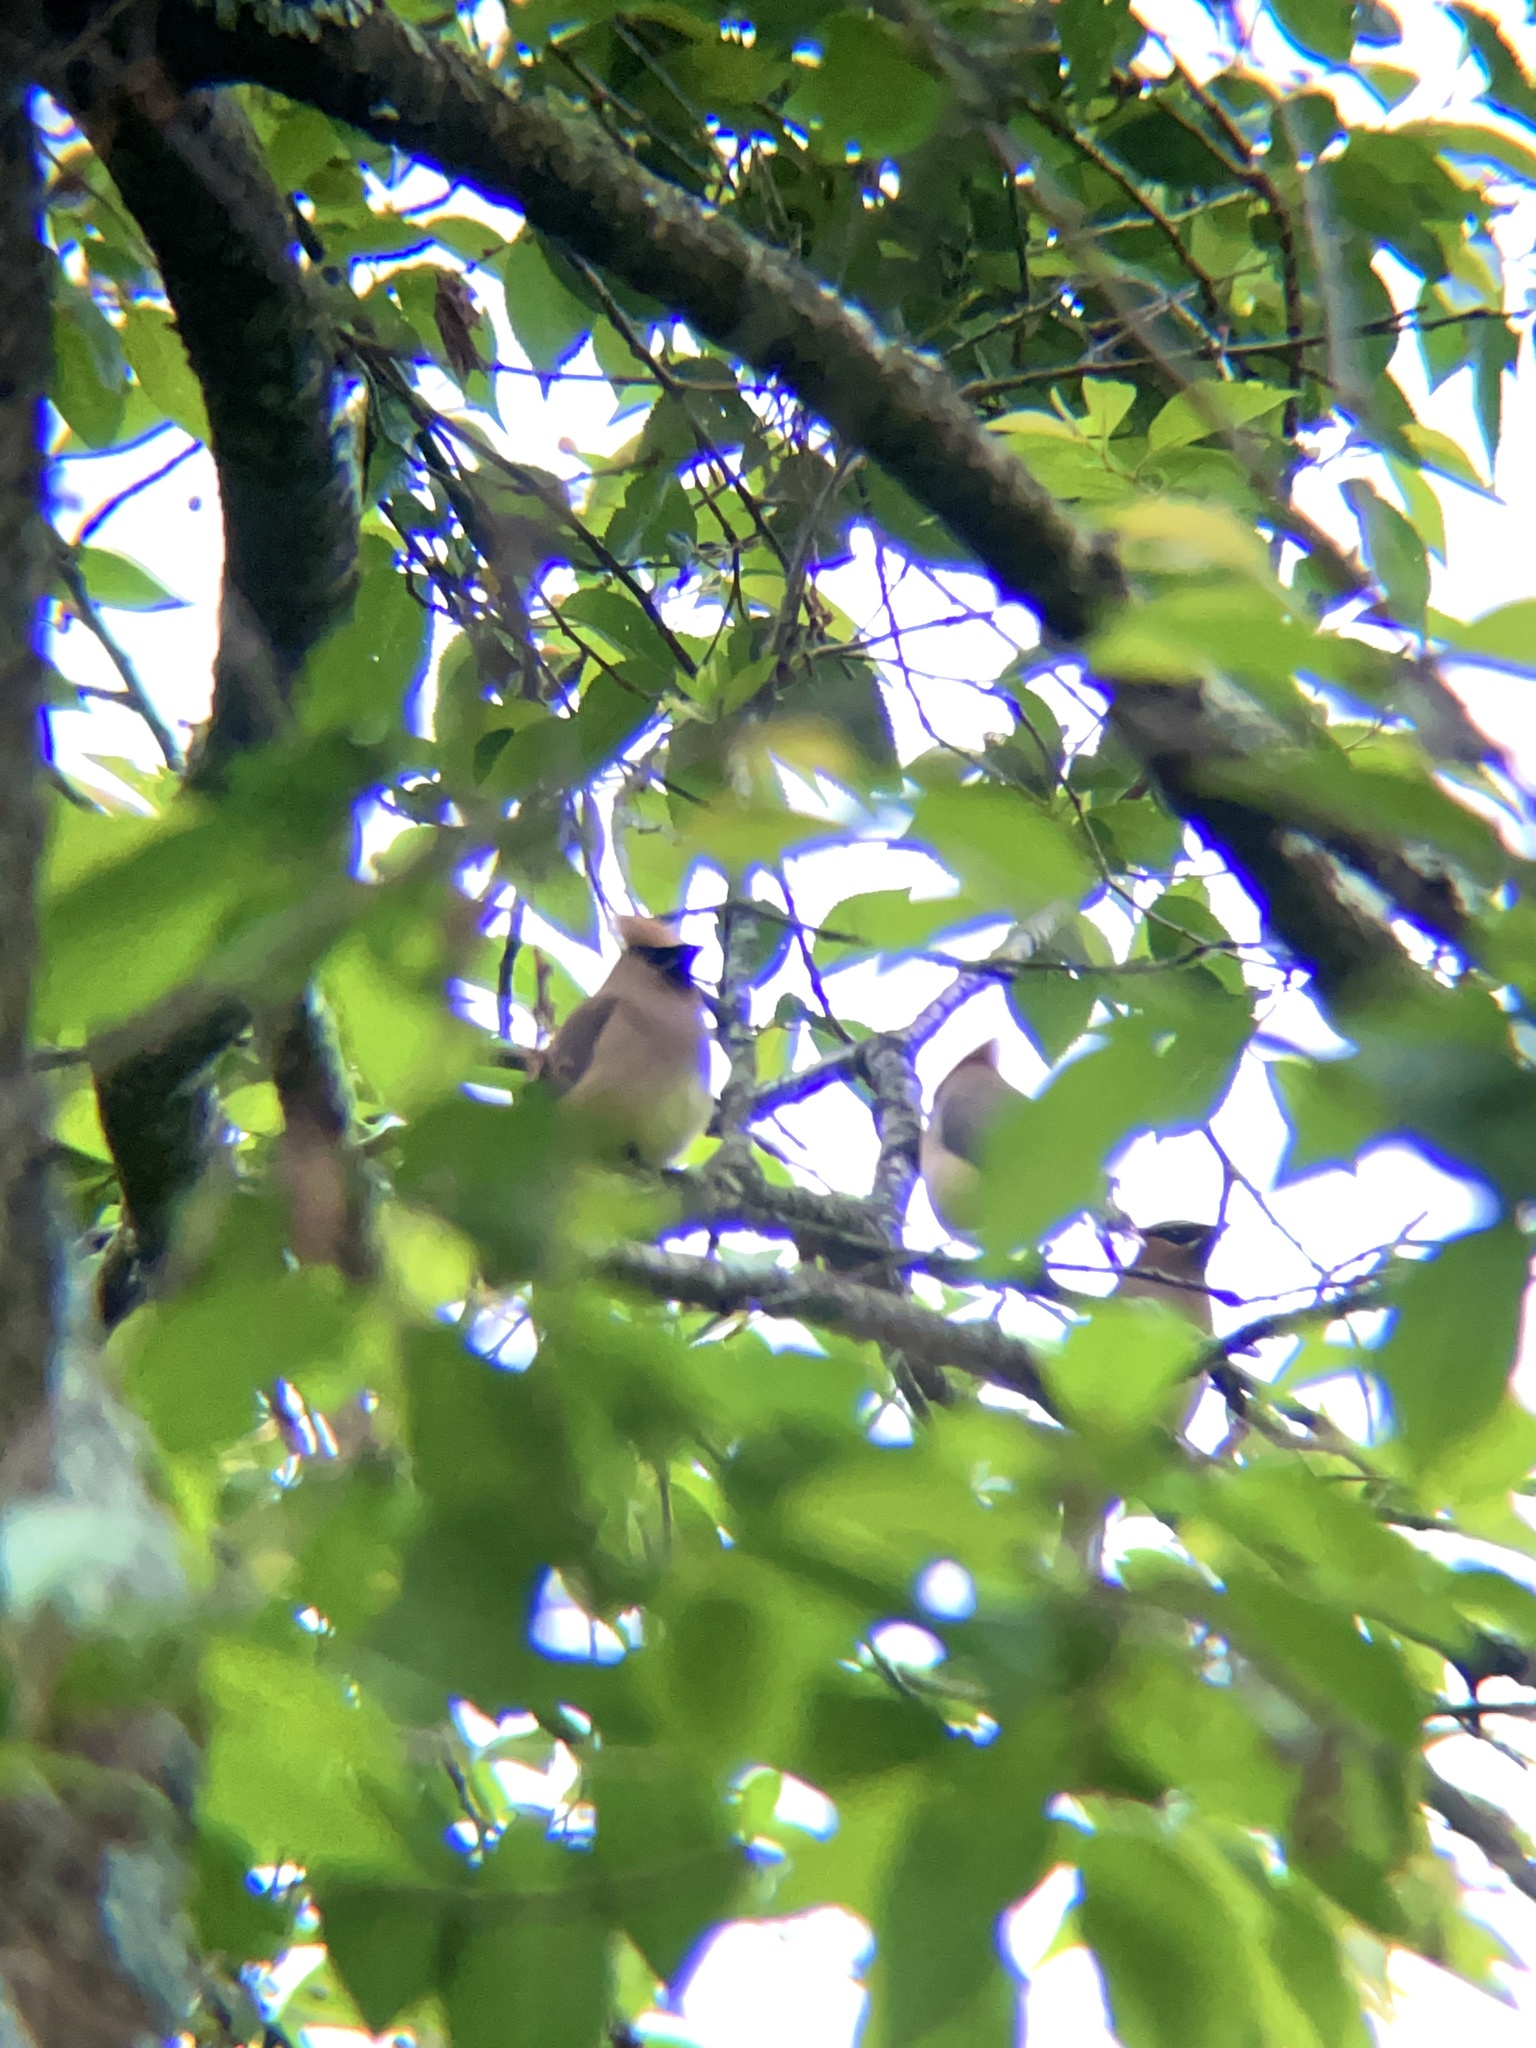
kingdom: Animalia
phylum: Chordata
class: Aves
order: Passeriformes
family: Bombycillidae
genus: Bombycilla
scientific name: Bombycilla cedrorum
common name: Cedar waxwing
